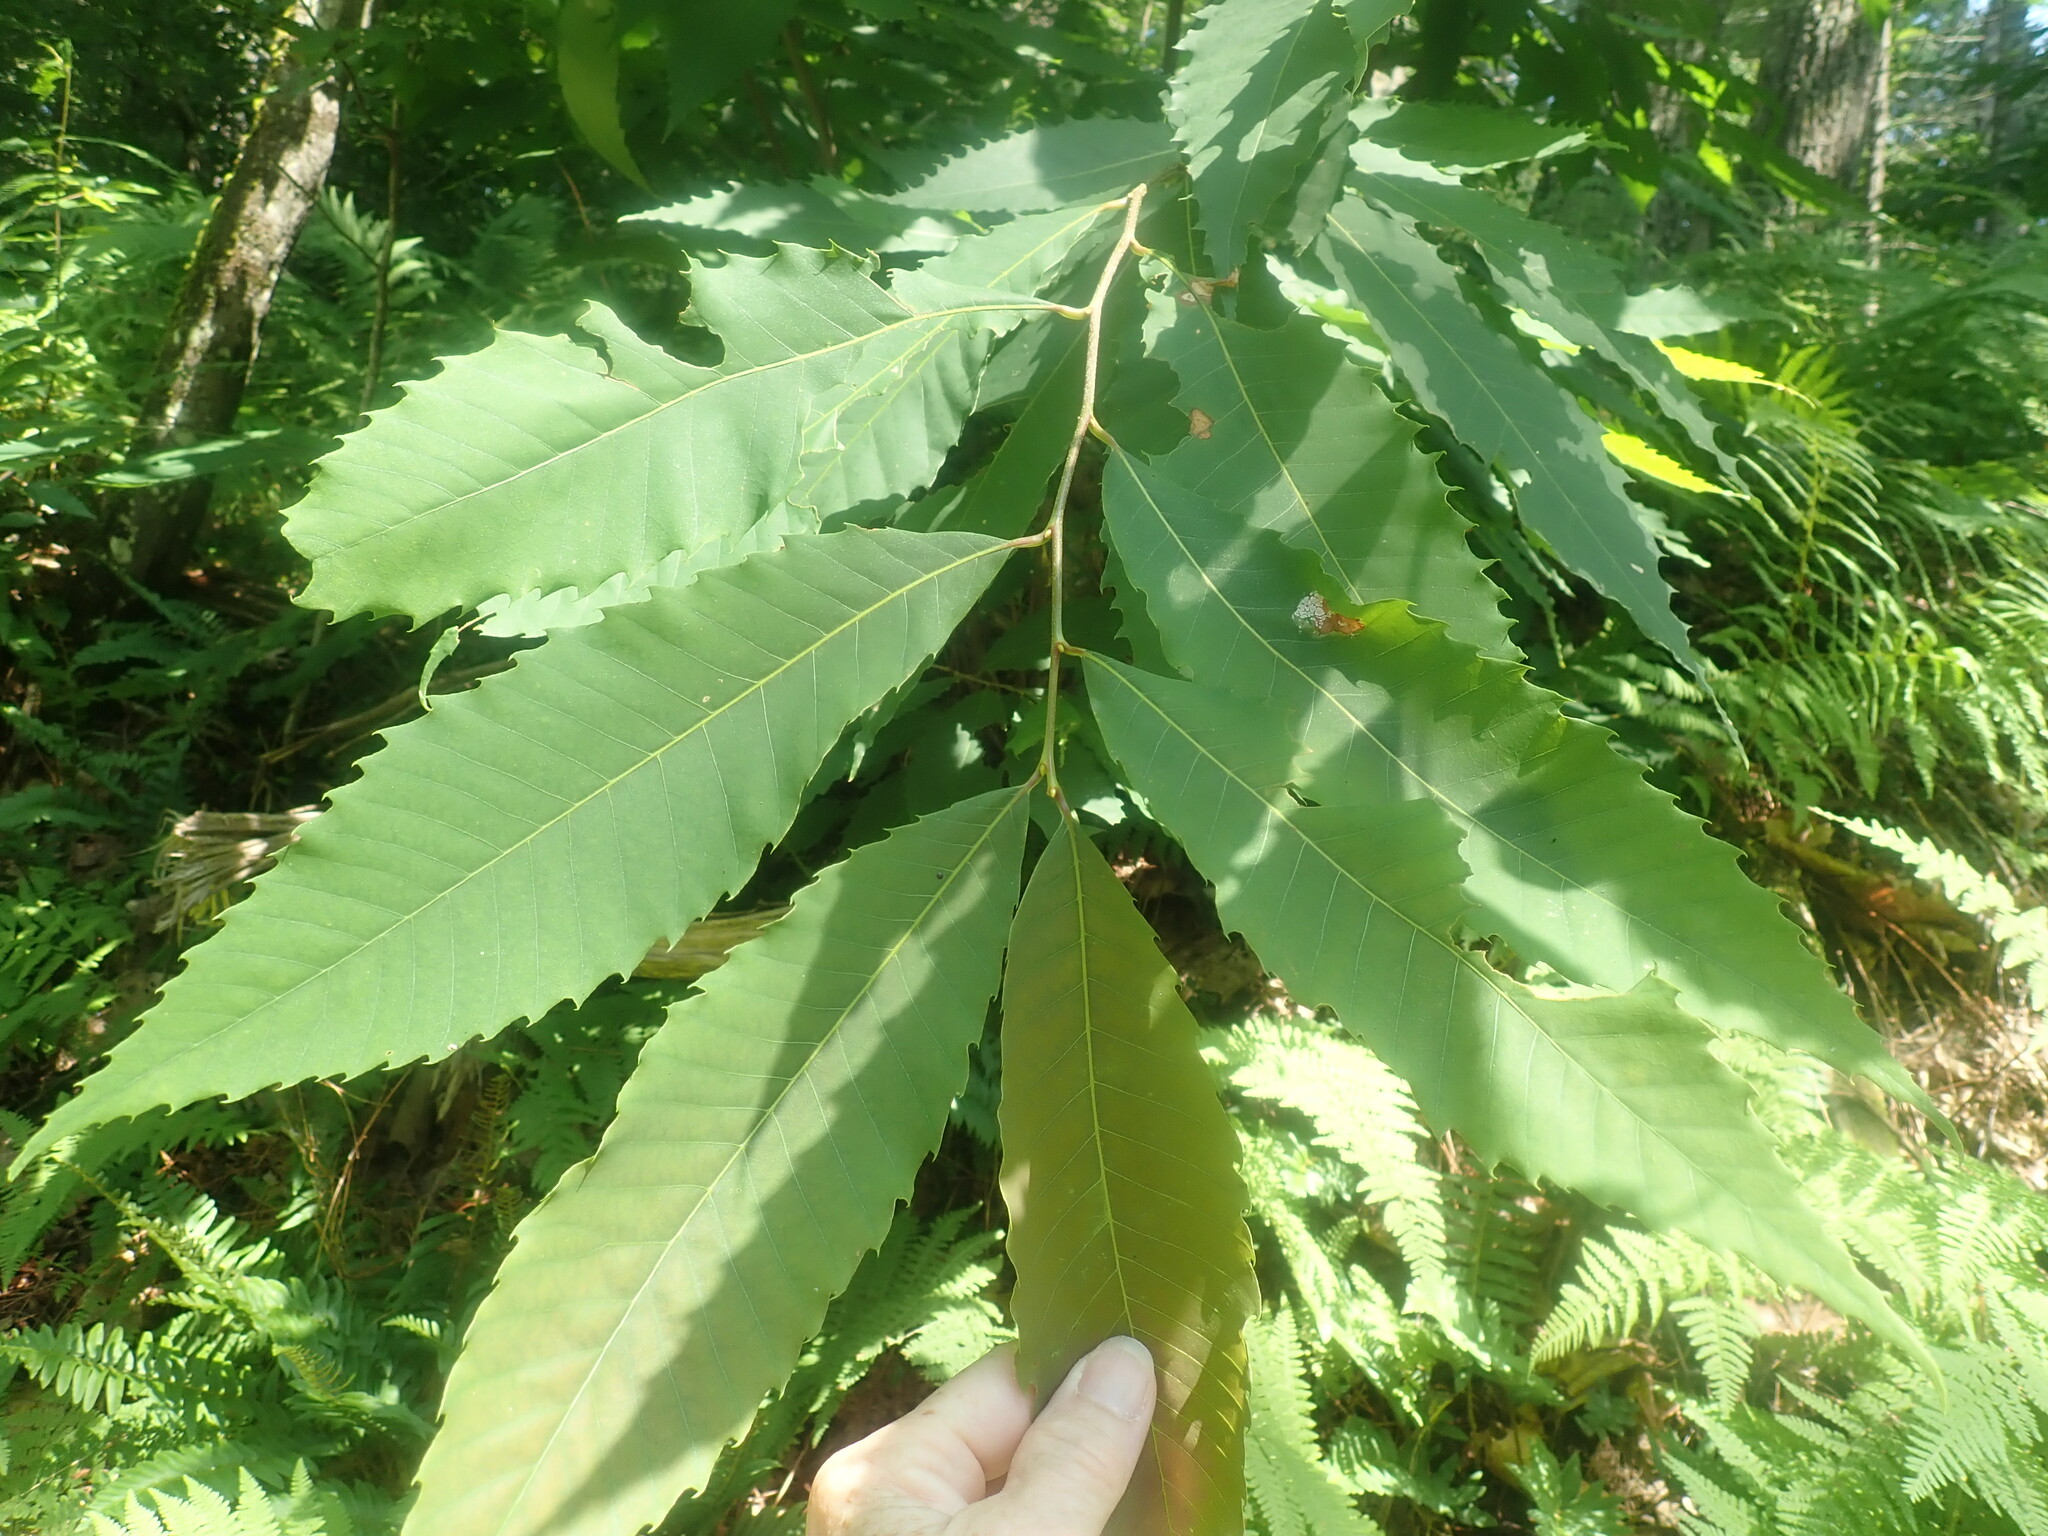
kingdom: Plantae
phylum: Tracheophyta
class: Magnoliopsida
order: Fagales
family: Fagaceae
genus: Castanea
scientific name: Castanea dentata
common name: American chestnut
